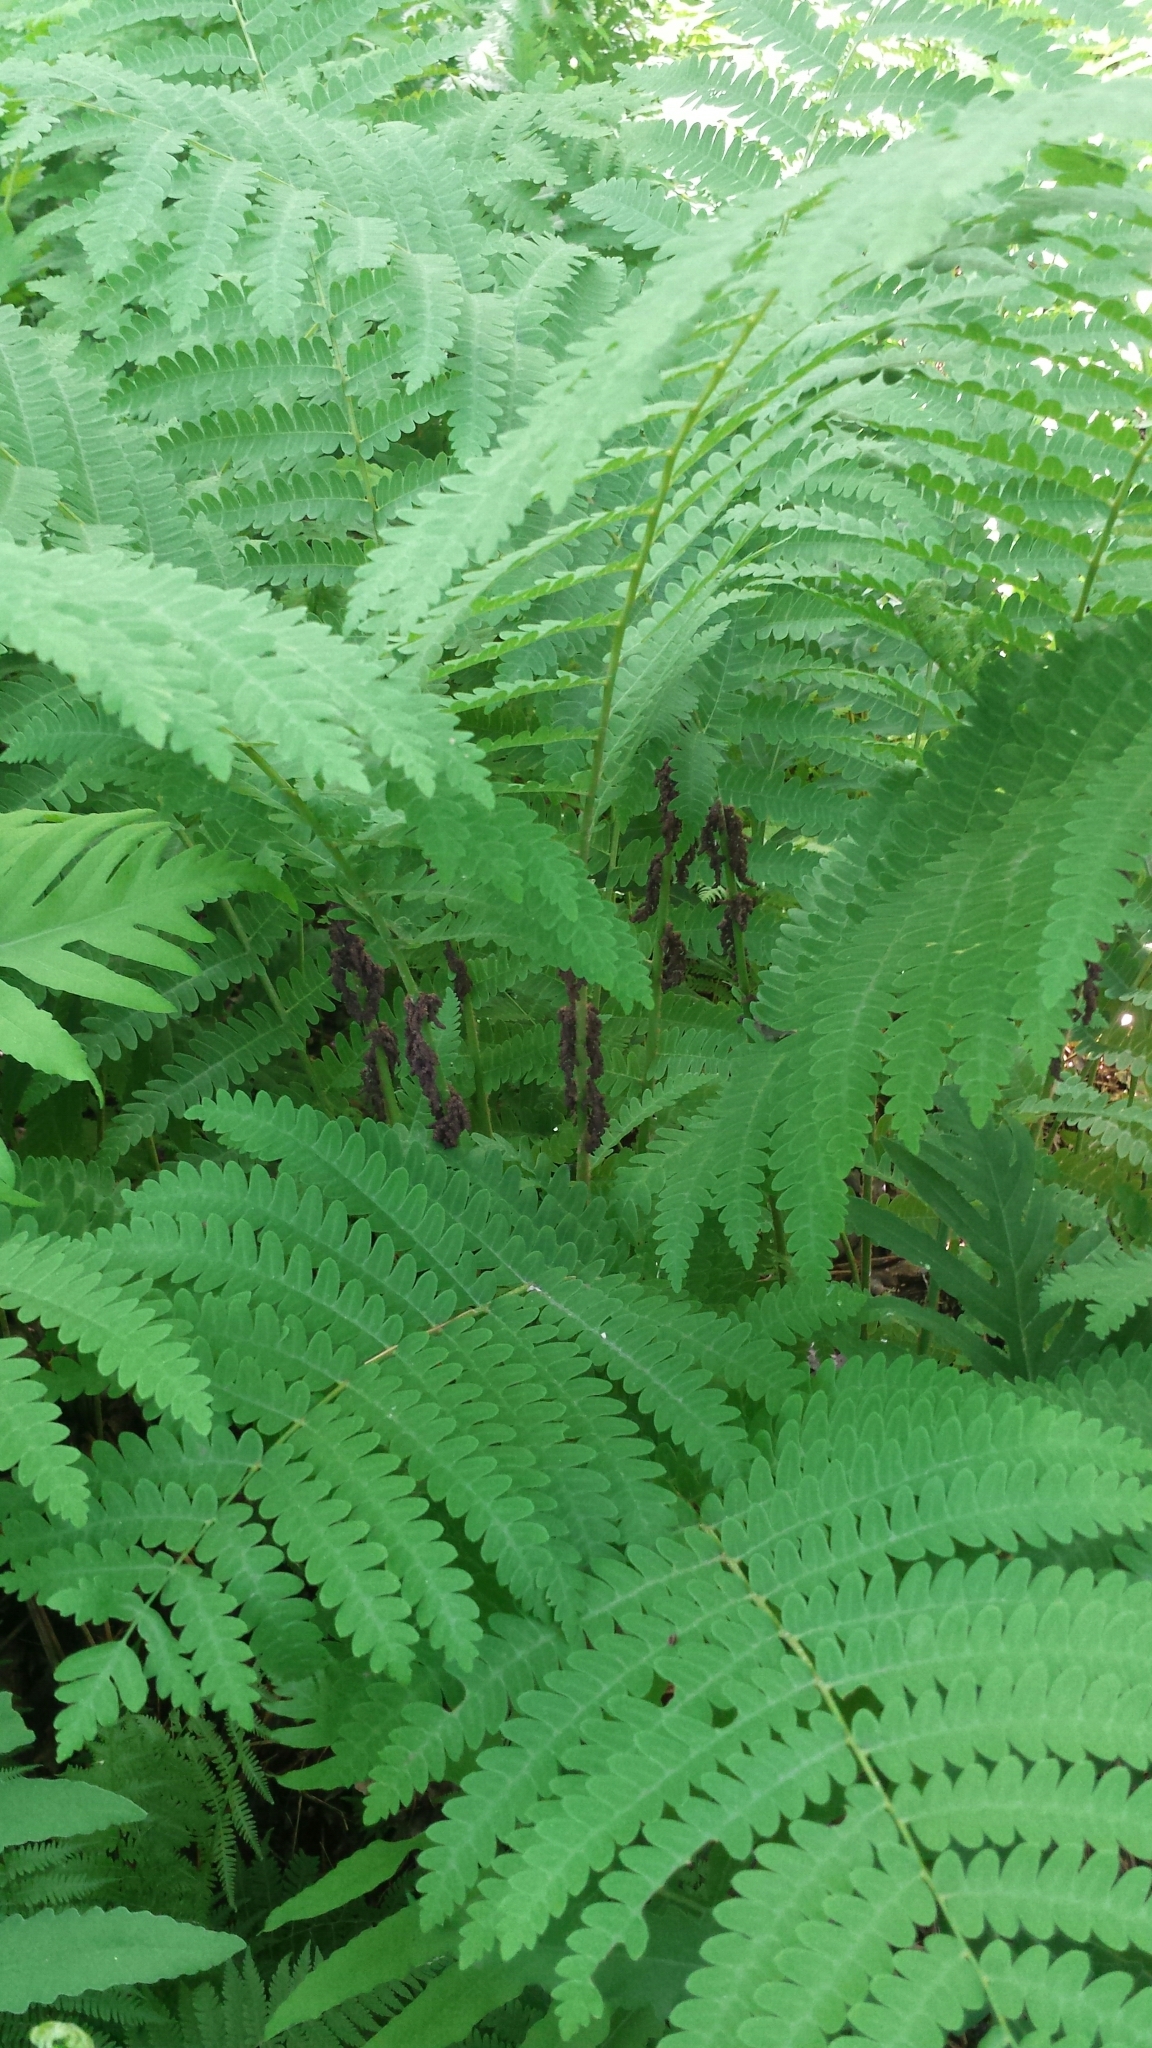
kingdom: Plantae
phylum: Tracheophyta
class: Polypodiopsida
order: Osmundales
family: Osmundaceae
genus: Claytosmunda
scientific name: Claytosmunda claytoniana
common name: Clayton's fern
